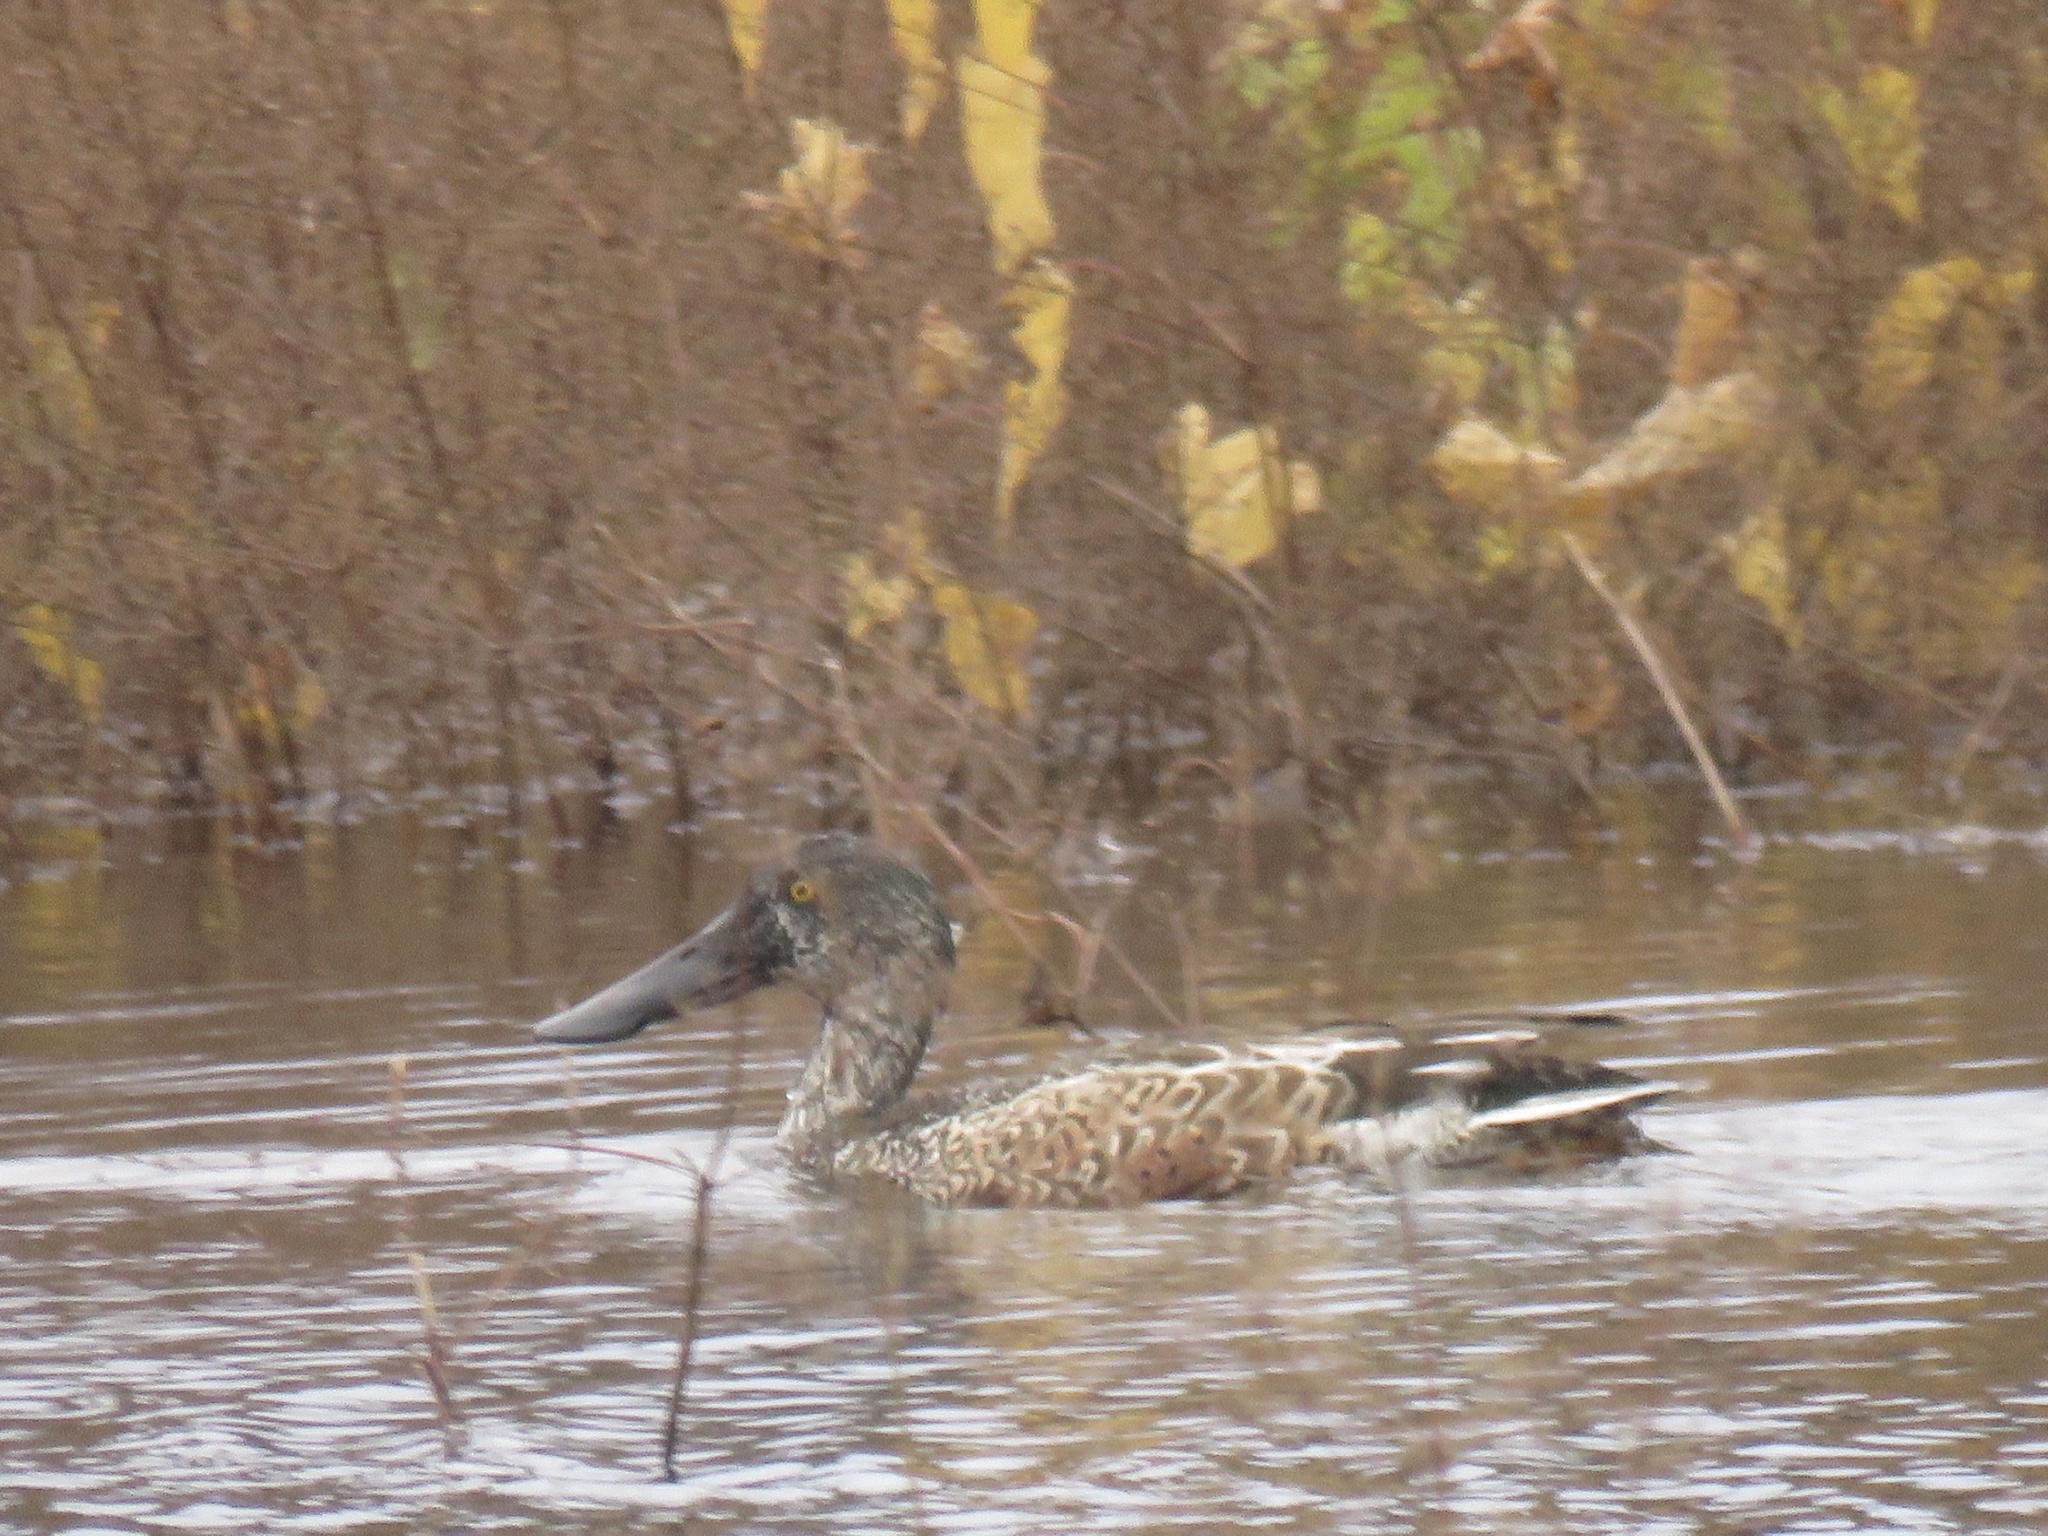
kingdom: Animalia
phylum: Chordata
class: Aves
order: Anseriformes
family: Anatidae
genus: Spatula
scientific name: Spatula clypeata
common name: Northern shoveler
